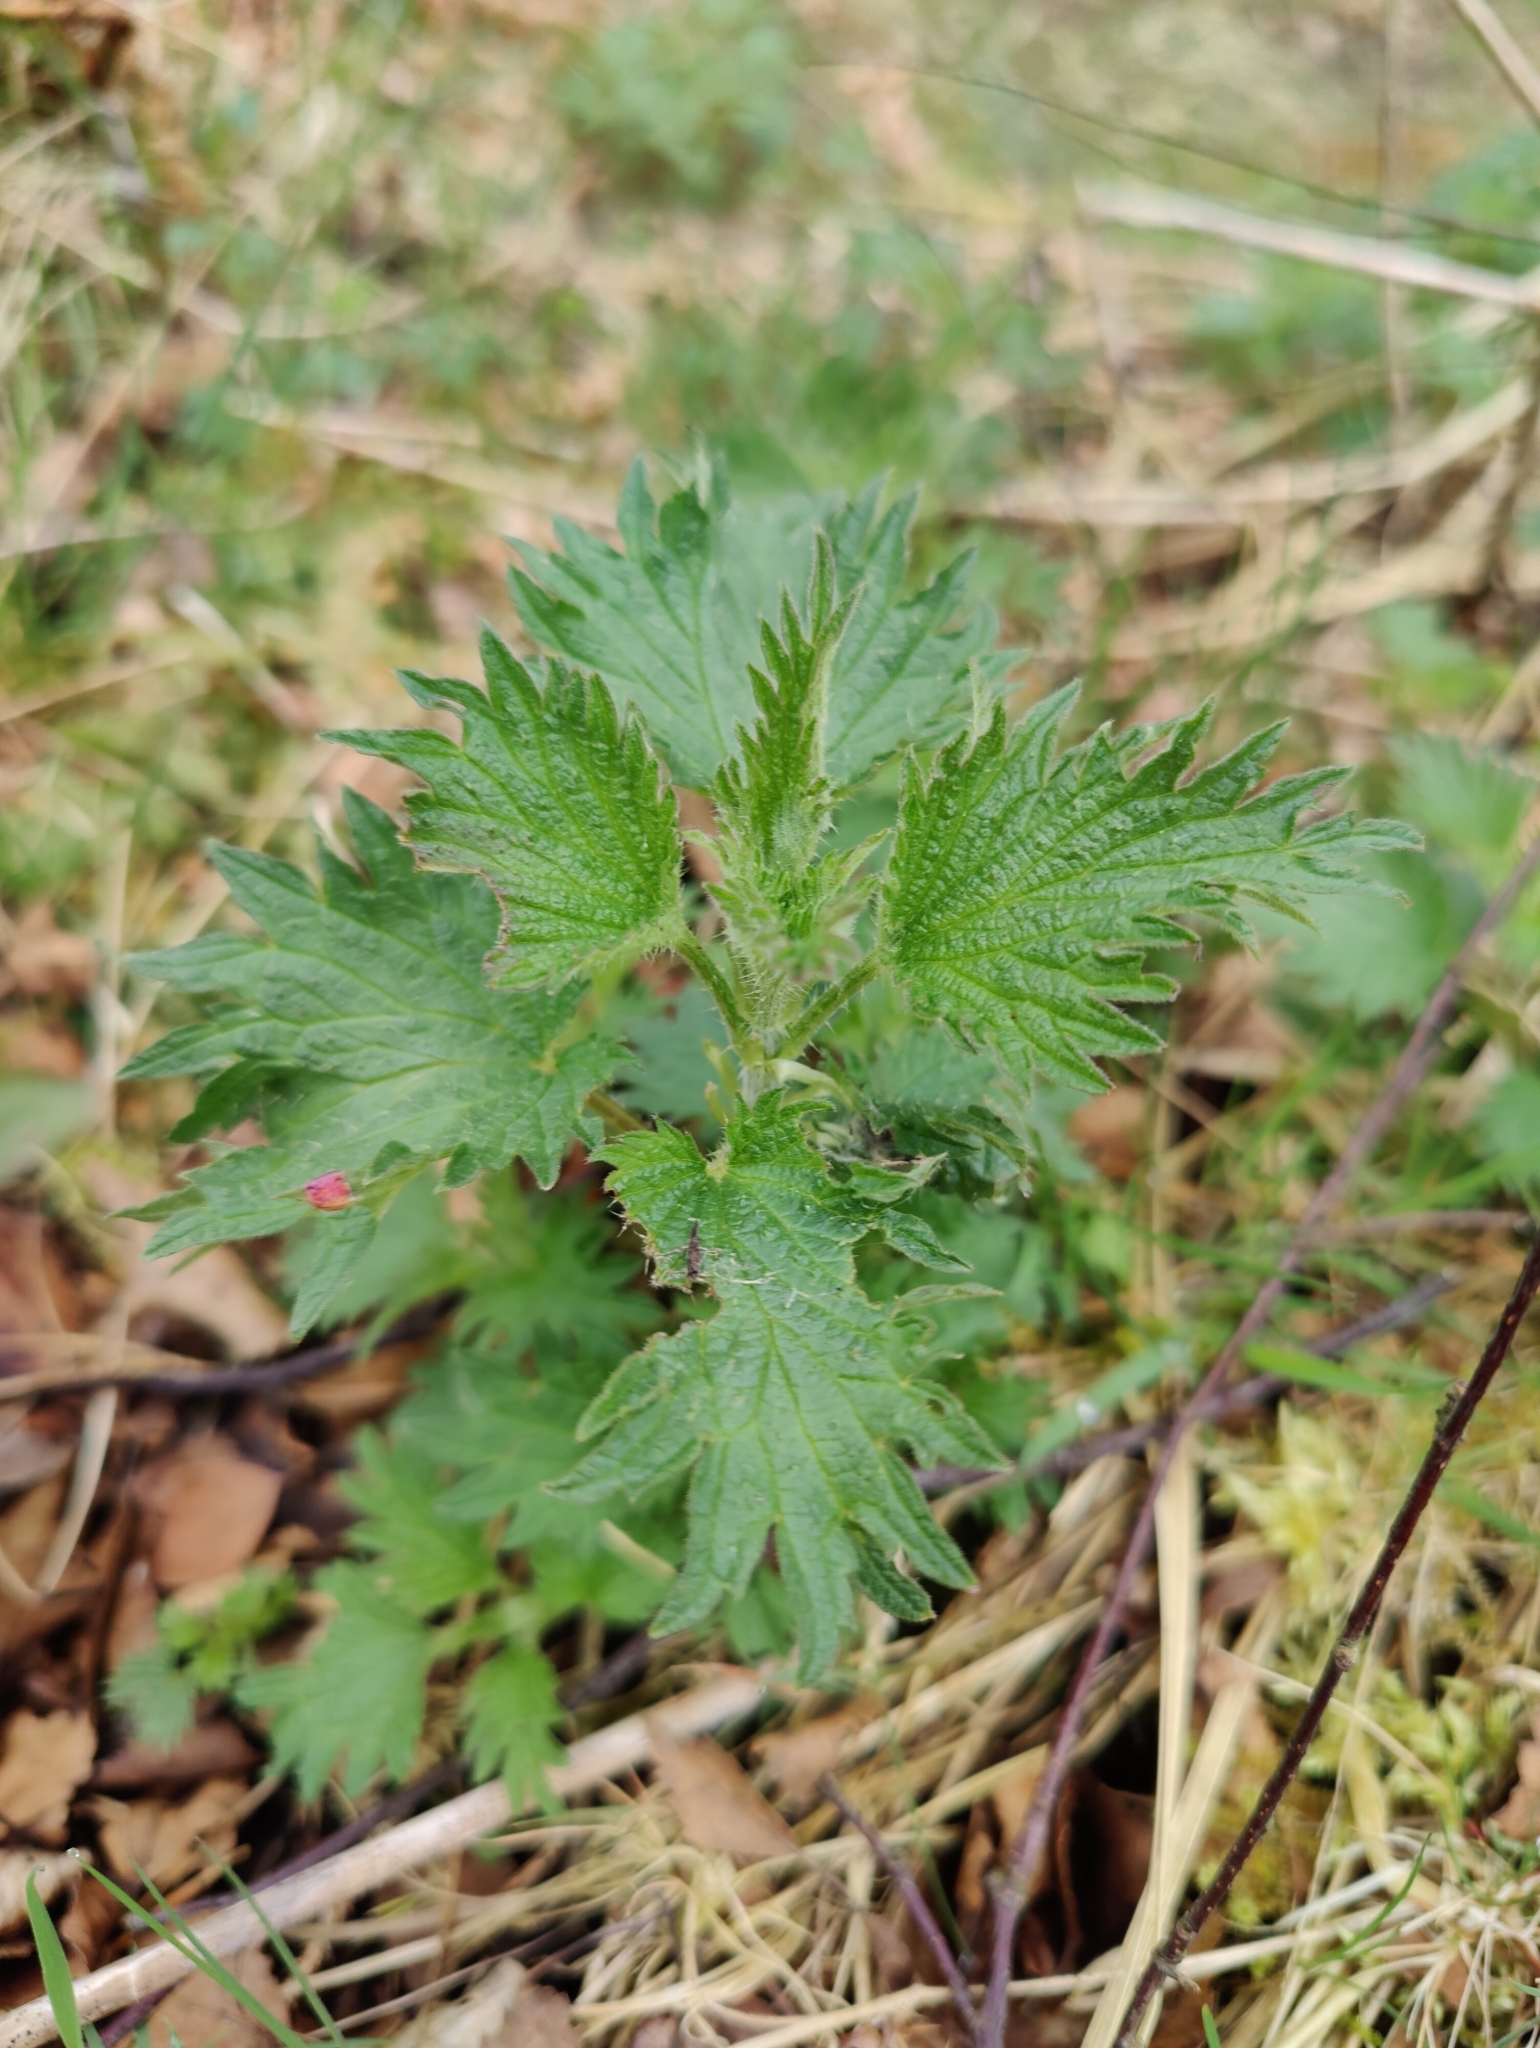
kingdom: Plantae
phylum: Tracheophyta
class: Magnoliopsida
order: Rosales
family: Urticaceae
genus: Urtica
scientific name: Urtica dioica
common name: Common nettle
